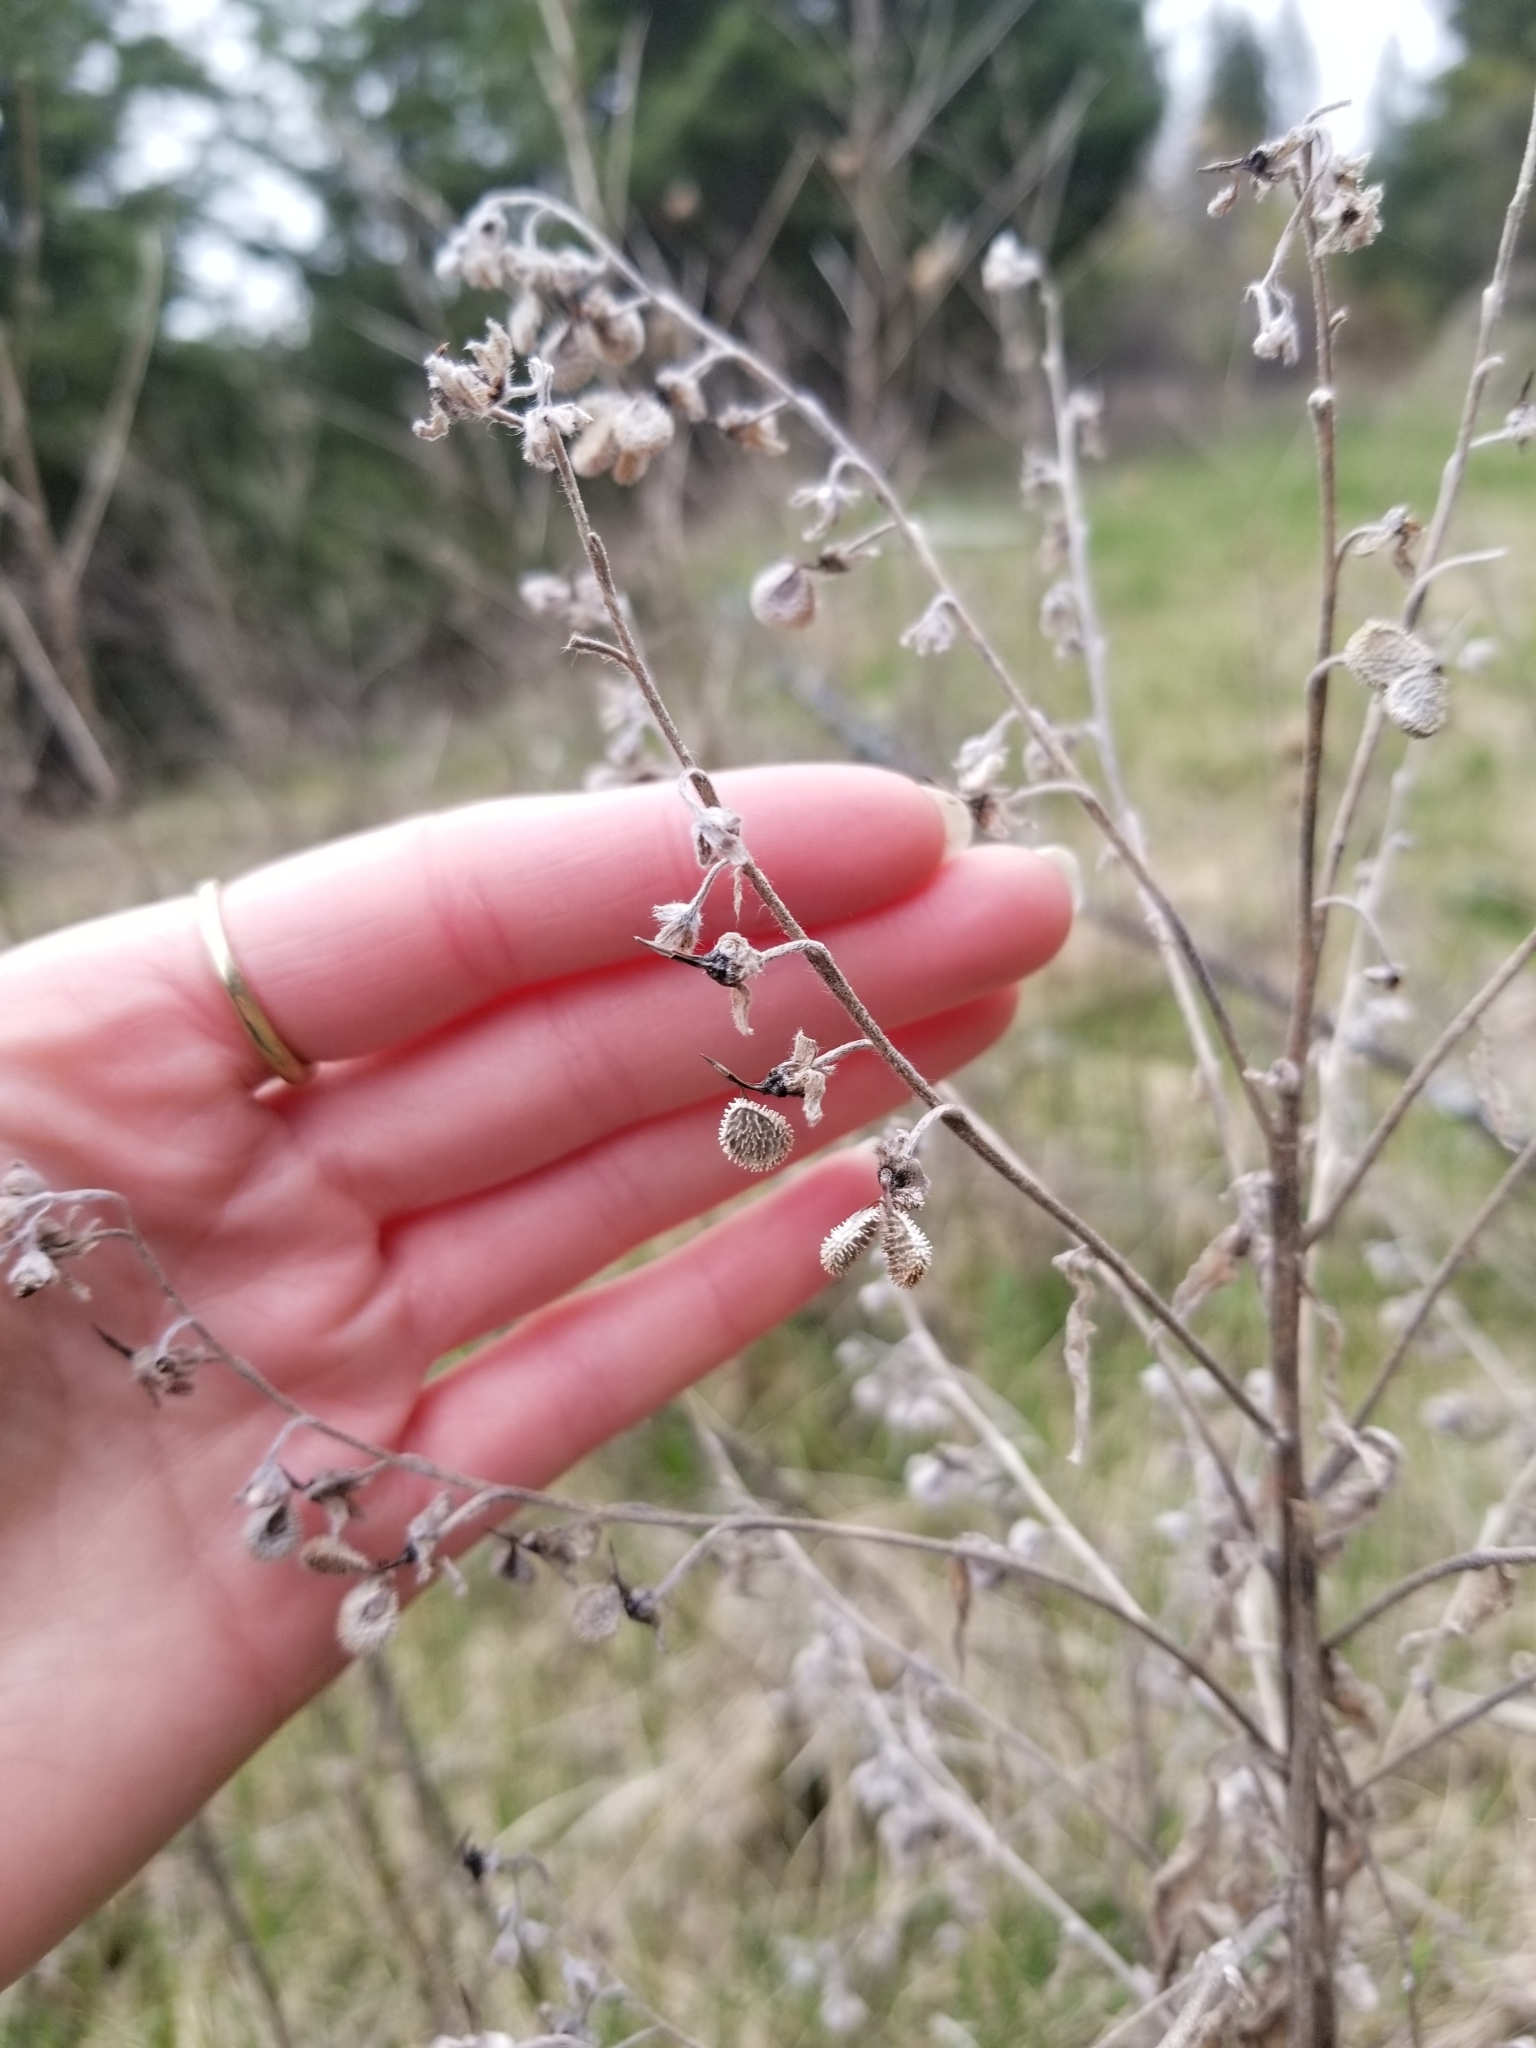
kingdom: Plantae
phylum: Tracheophyta
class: Magnoliopsida
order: Boraginales
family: Boraginaceae
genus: Cynoglossum
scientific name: Cynoglossum officinale
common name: Hound's-tongue
